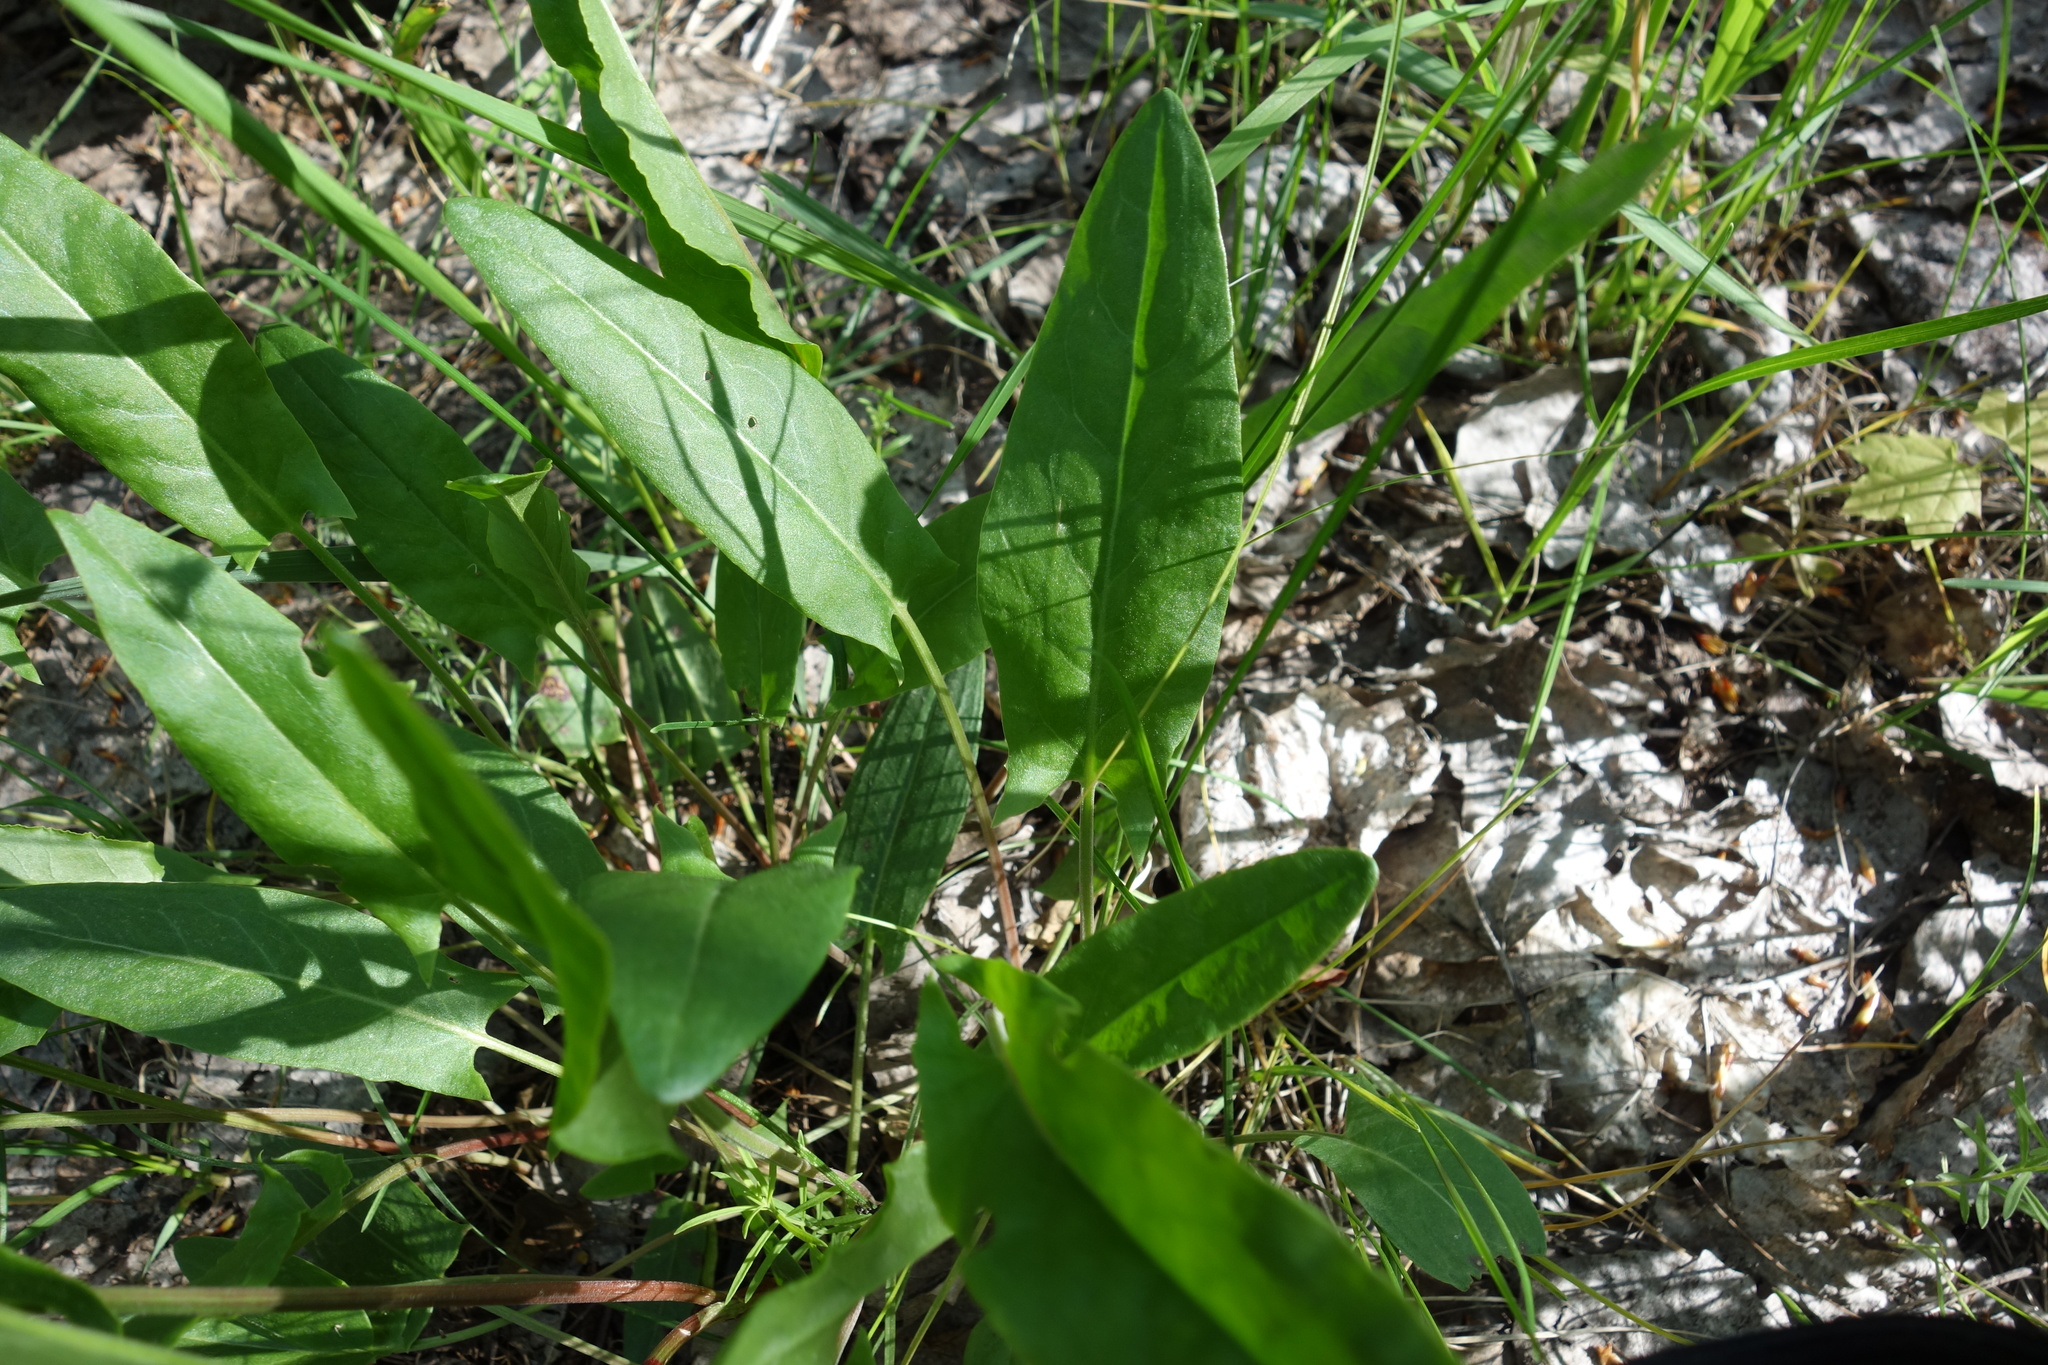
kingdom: Plantae
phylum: Tracheophyta
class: Magnoliopsida
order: Caryophyllales
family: Polygonaceae
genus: Rumex
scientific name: Rumex acetosa
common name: Garden sorrel
